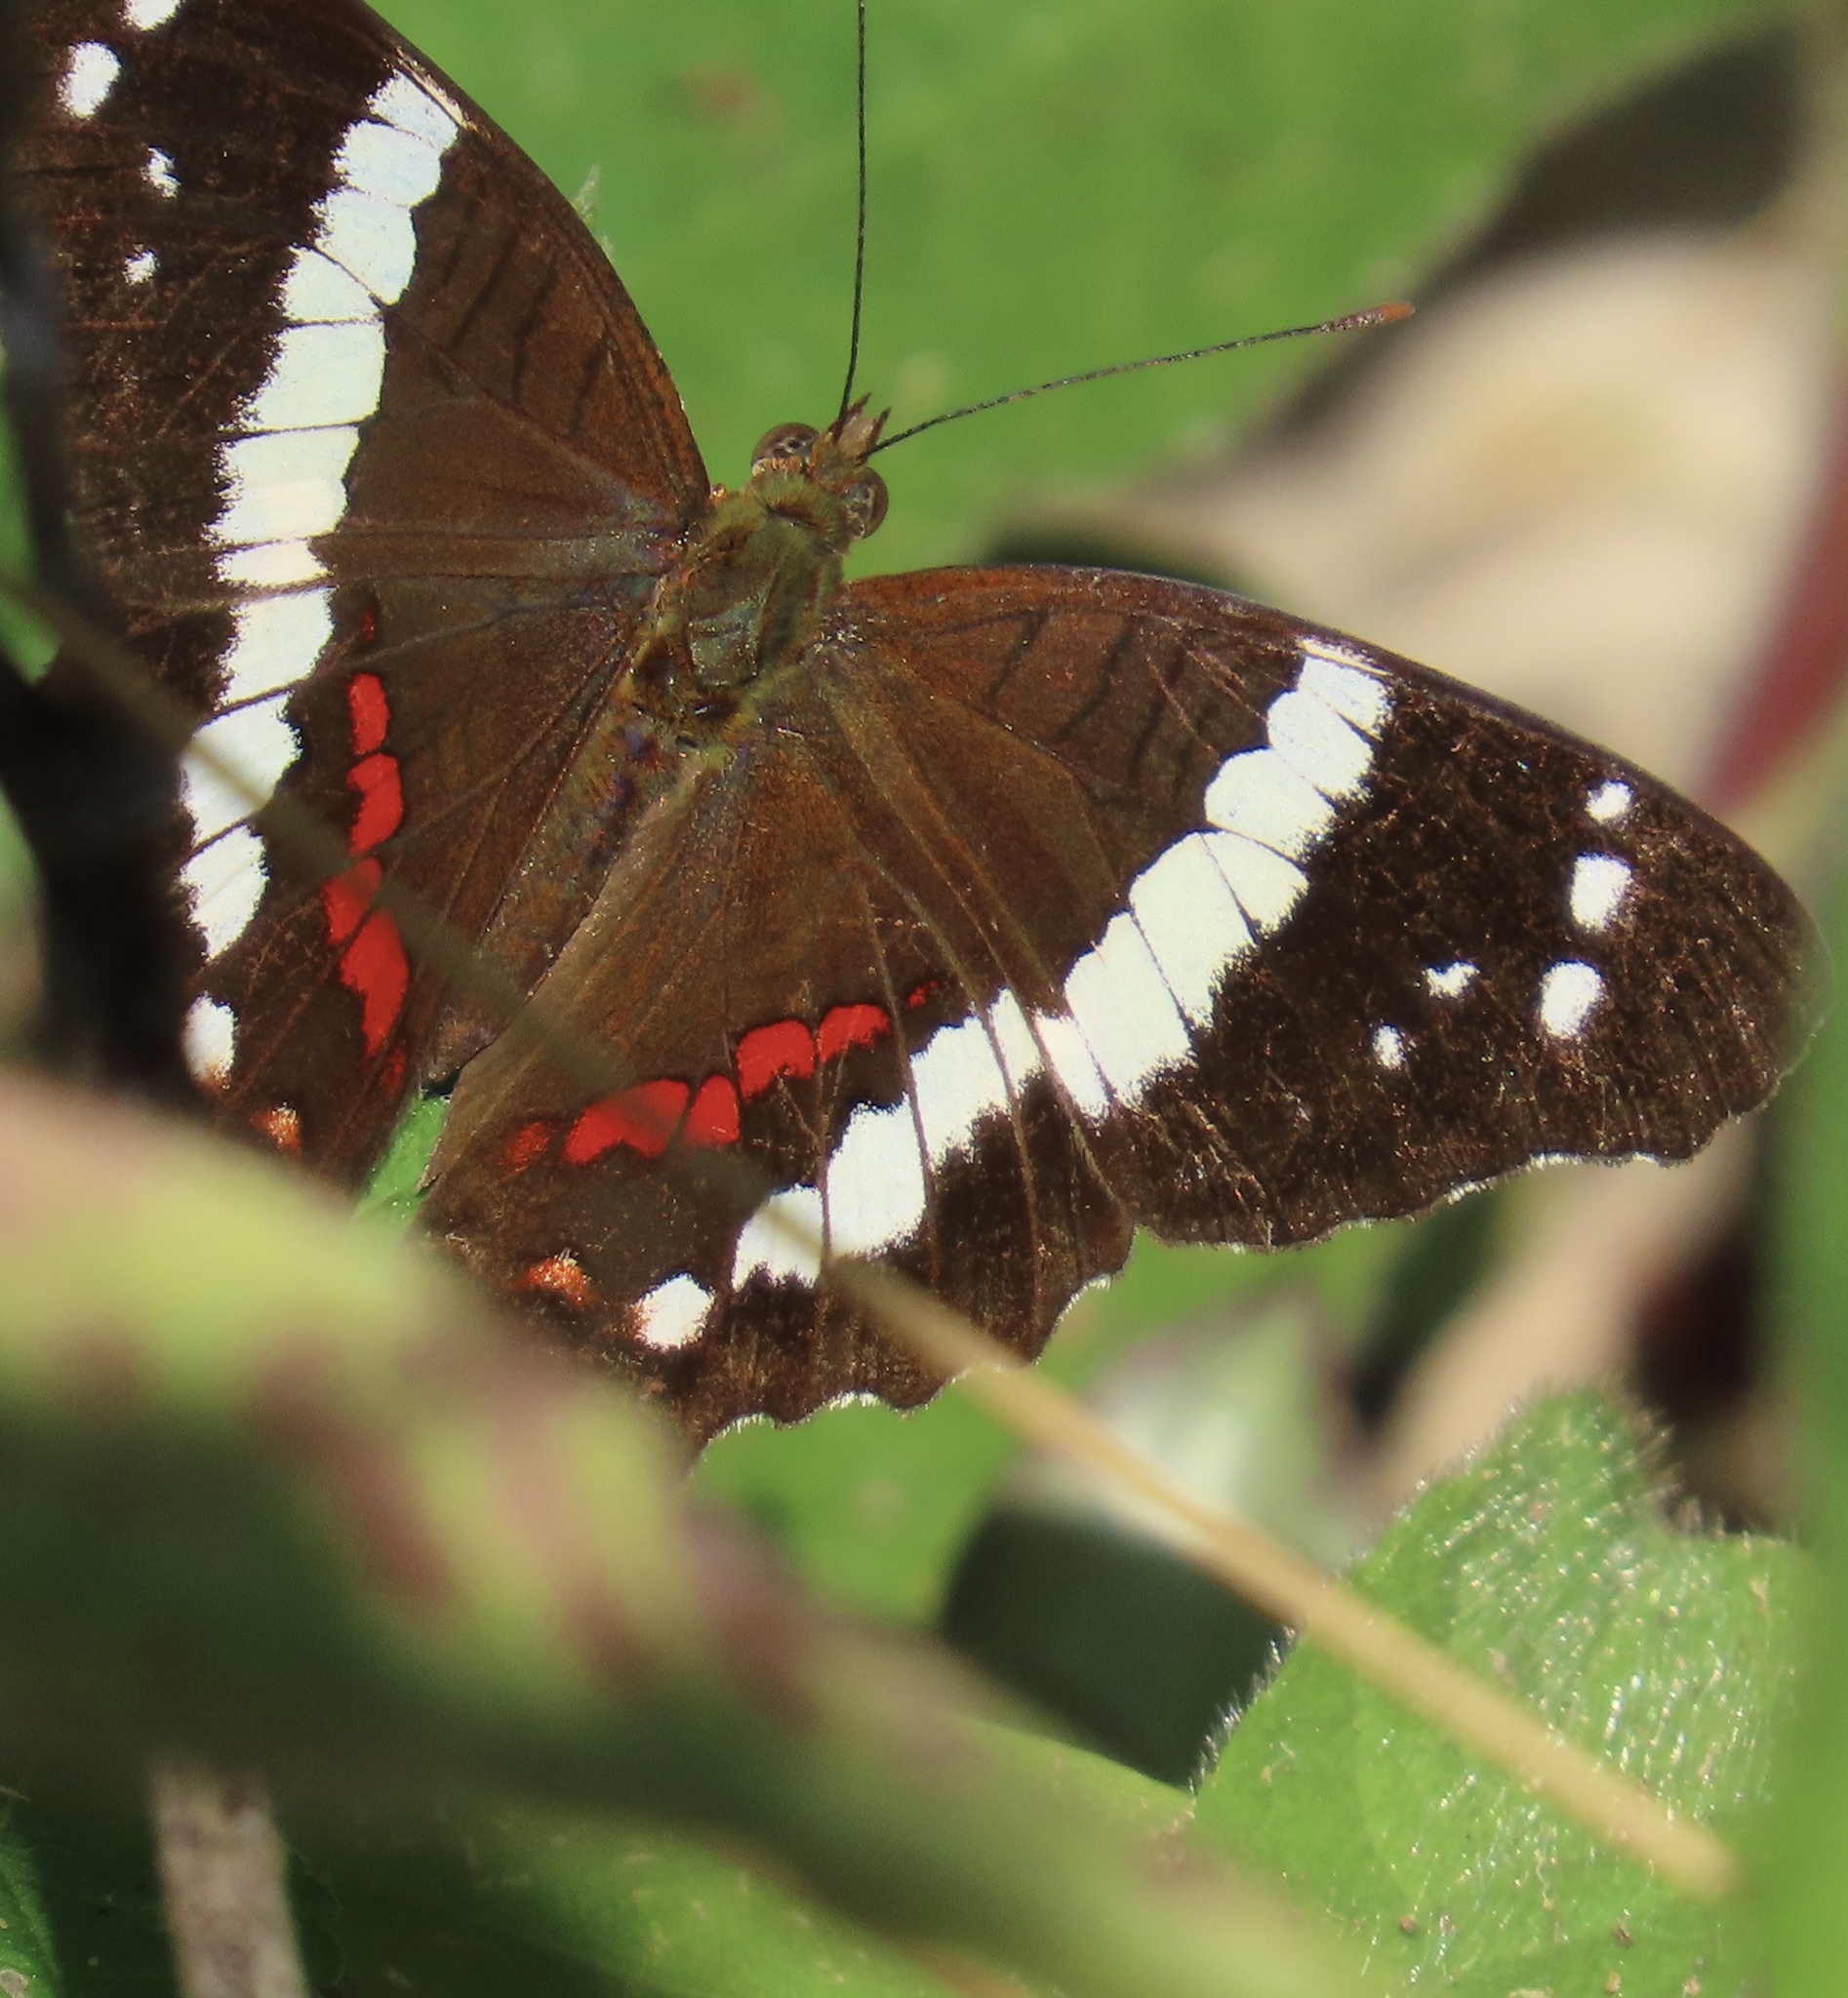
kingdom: Animalia
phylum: Arthropoda
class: Insecta
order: Lepidoptera
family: Nymphalidae
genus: Anartia
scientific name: Anartia fatima
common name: Banded peacock
